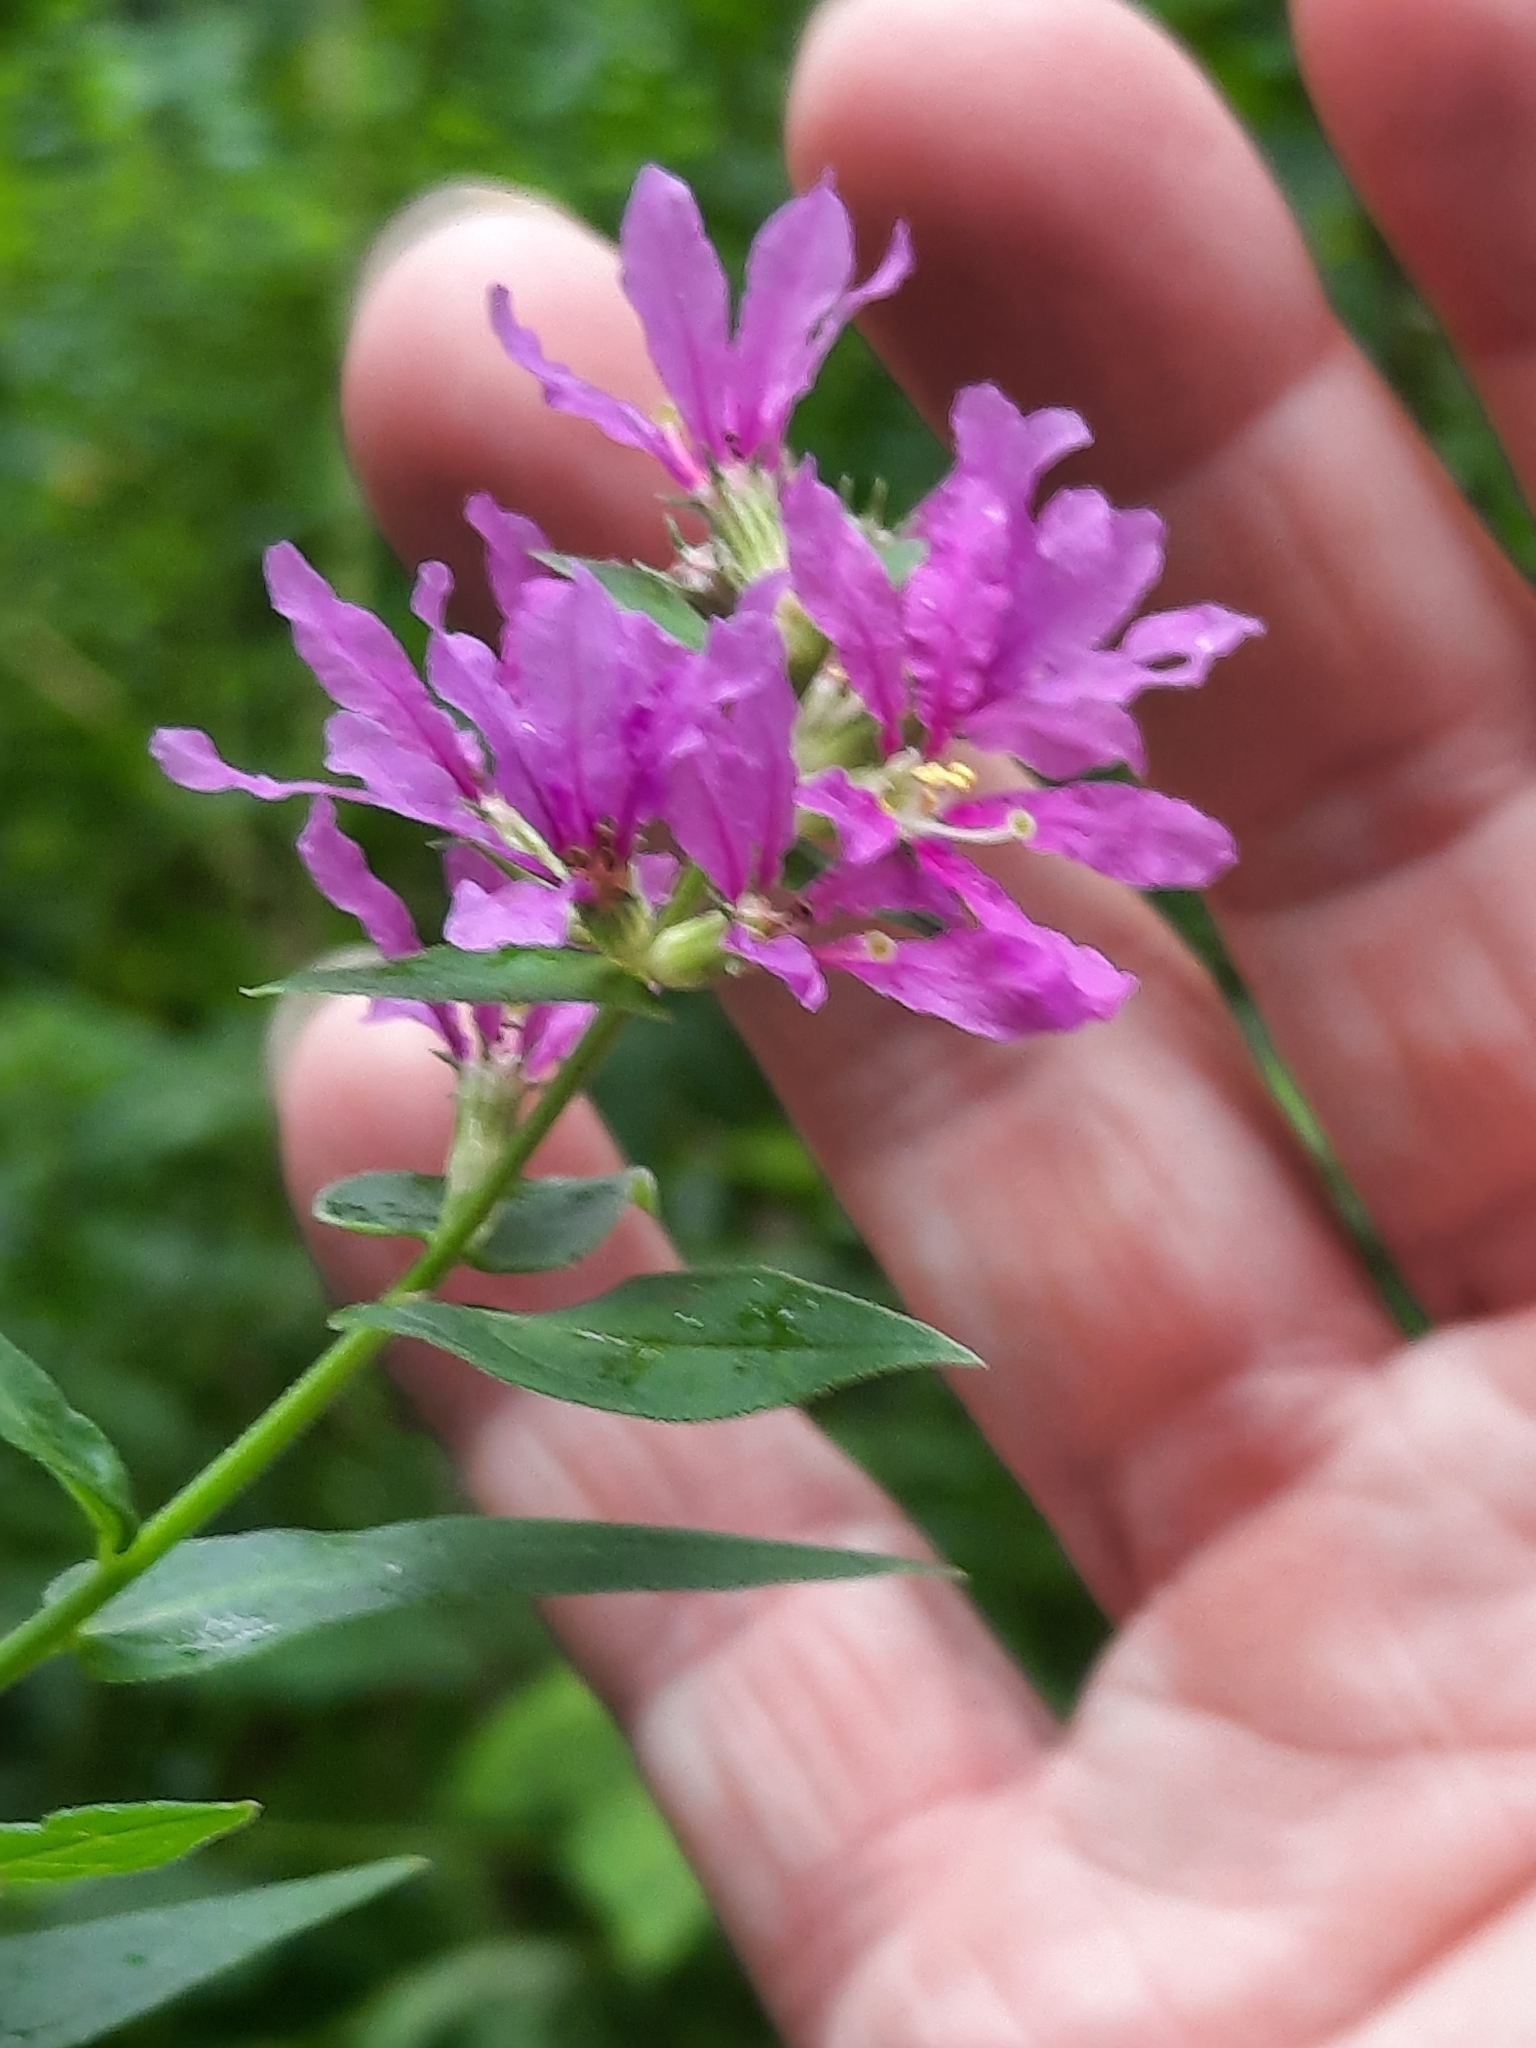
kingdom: Plantae
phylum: Tracheophyta
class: Magnoliopsida
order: Myrtales
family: Lythraceae
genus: Lythrum
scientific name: Lythrum salicaria
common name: Purple loosestrife
